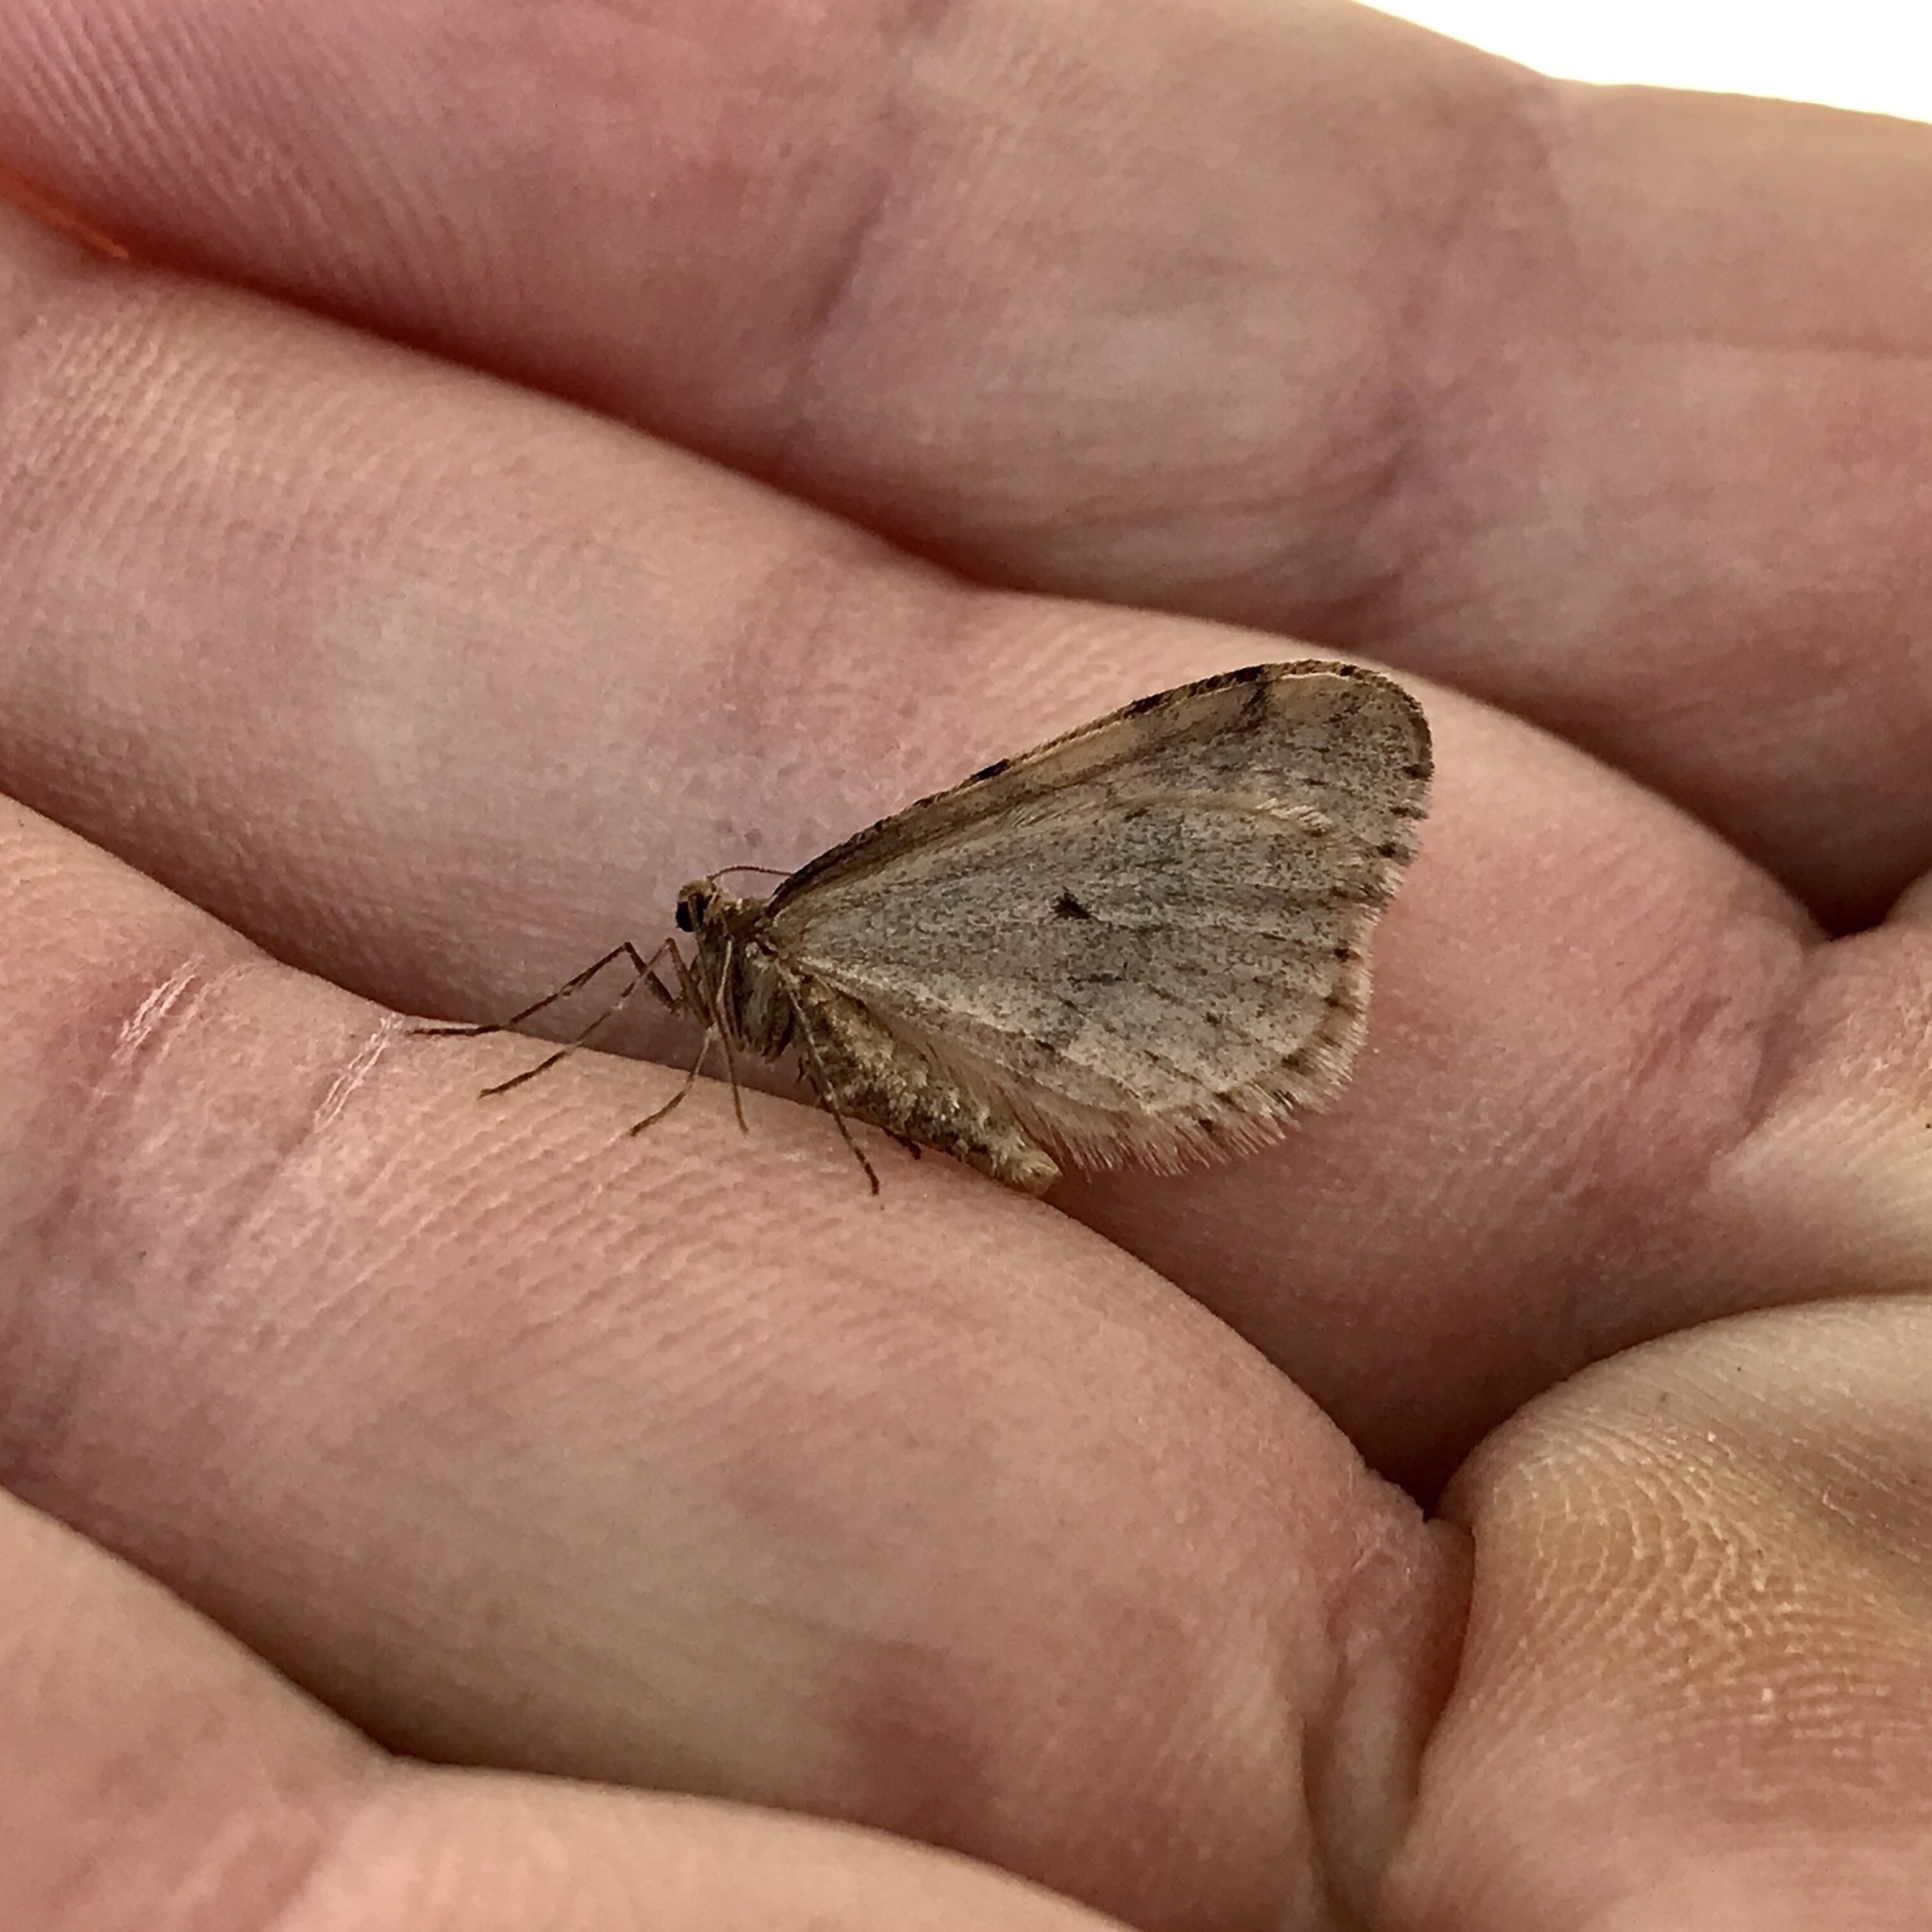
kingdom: Animalia
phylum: Arthropoda
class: Insecta
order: Lepidoptera
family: Geometridae
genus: Operophtera
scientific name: Operophtera bruceata
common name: Bruce spanworm
